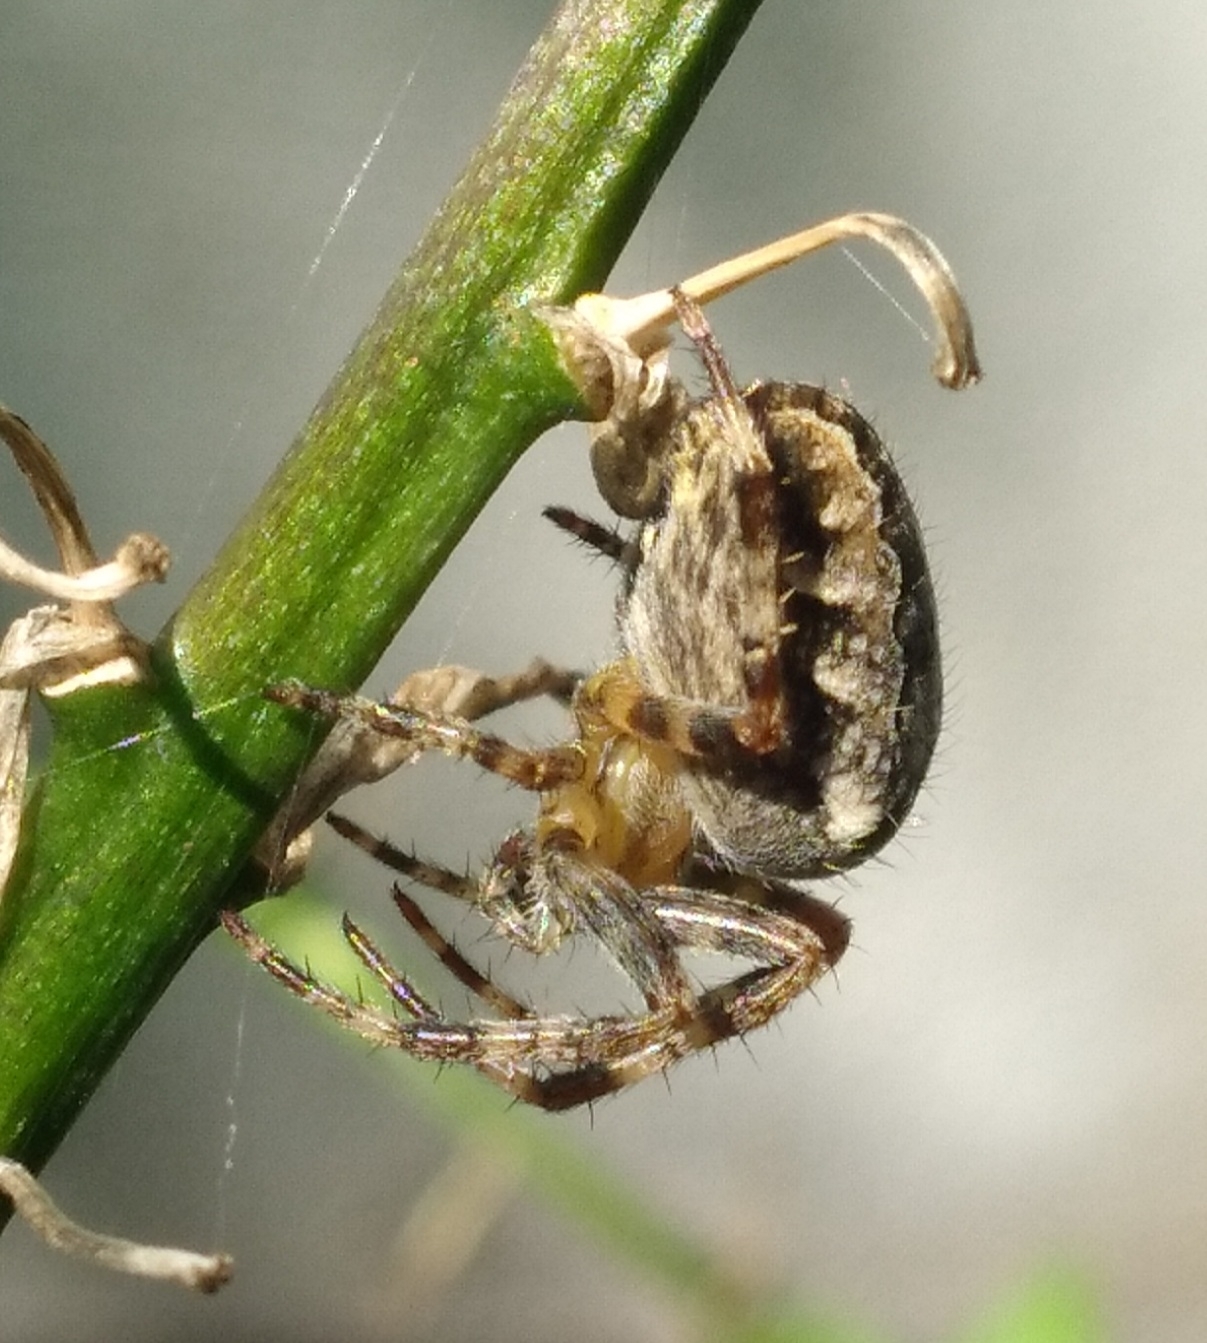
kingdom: Animalia
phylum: Arthropoda
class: Arachnida
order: Araneae
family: Araneidae
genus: Araneus
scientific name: Araneus diadematus
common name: Cross orbweaver
